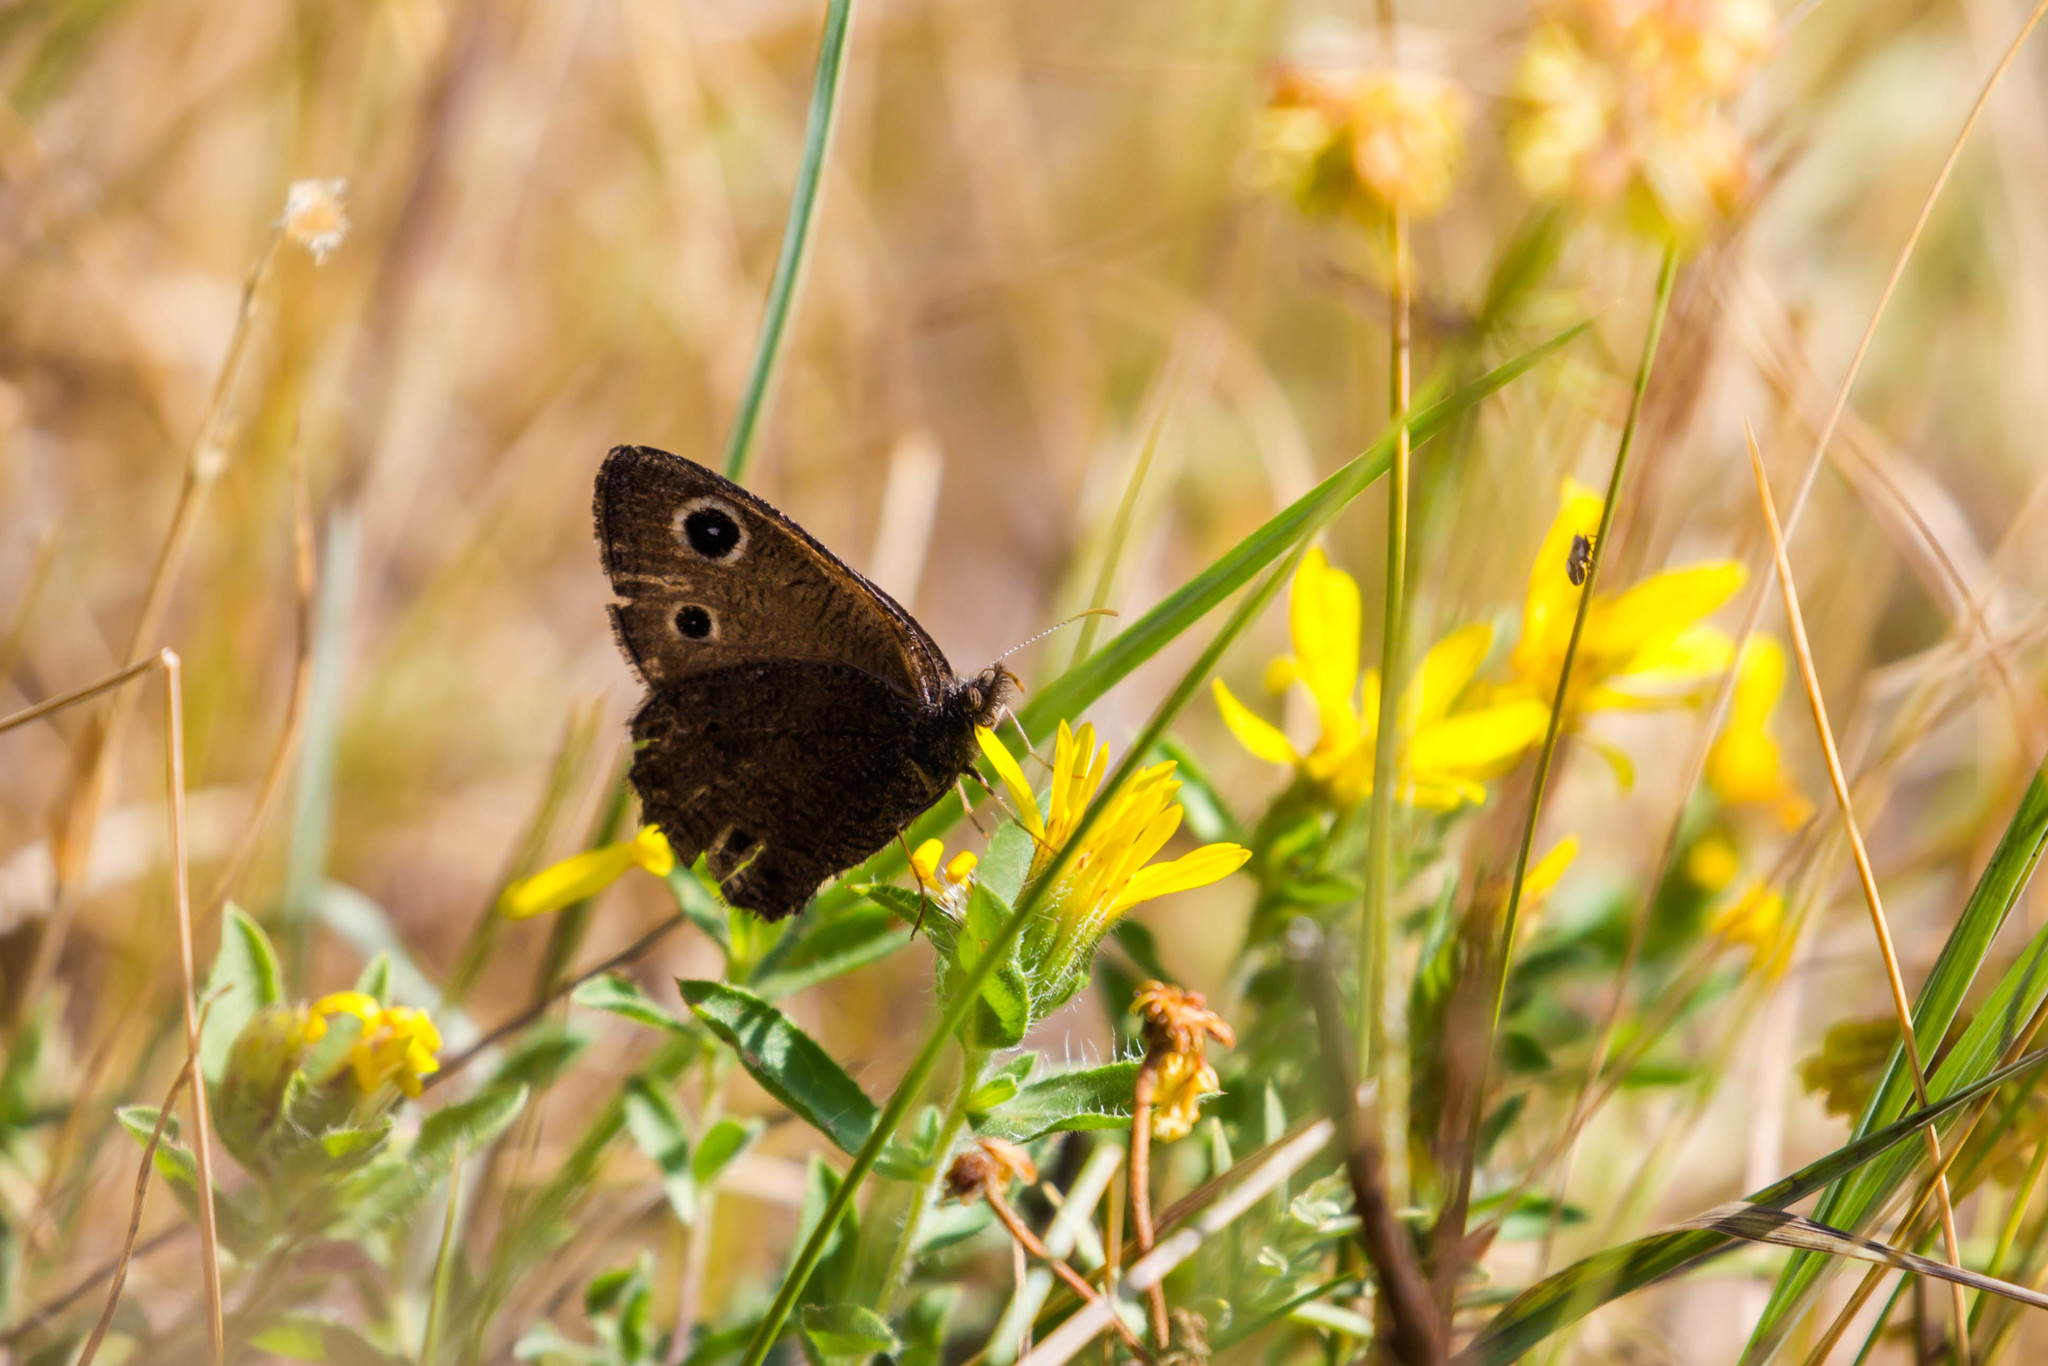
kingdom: Animalia
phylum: Arthropoda
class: Insecta
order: Lepidoptera
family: Nymphalidae
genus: Cercyonis
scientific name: Cercyonis oetus
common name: Small wood-nymph
